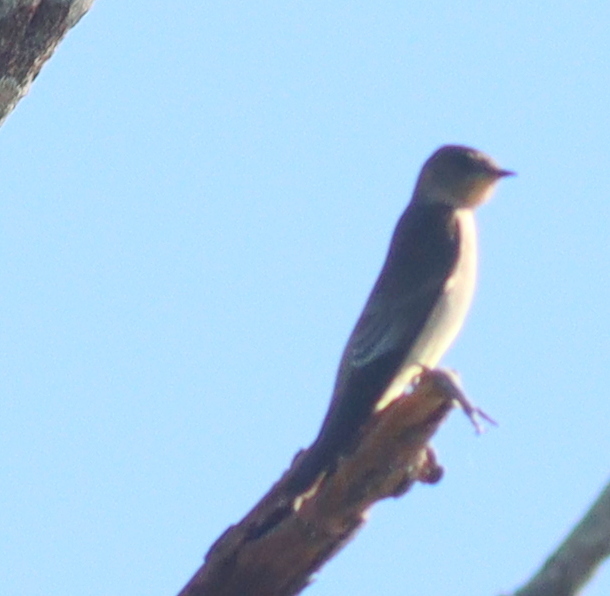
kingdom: Animalia
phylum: Chordata
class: Aves
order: Passeriformes
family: Hirundinidae
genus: Stelgidopteryx
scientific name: Stelgidopteryx ruficollis
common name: Southern rough-winged swallow
